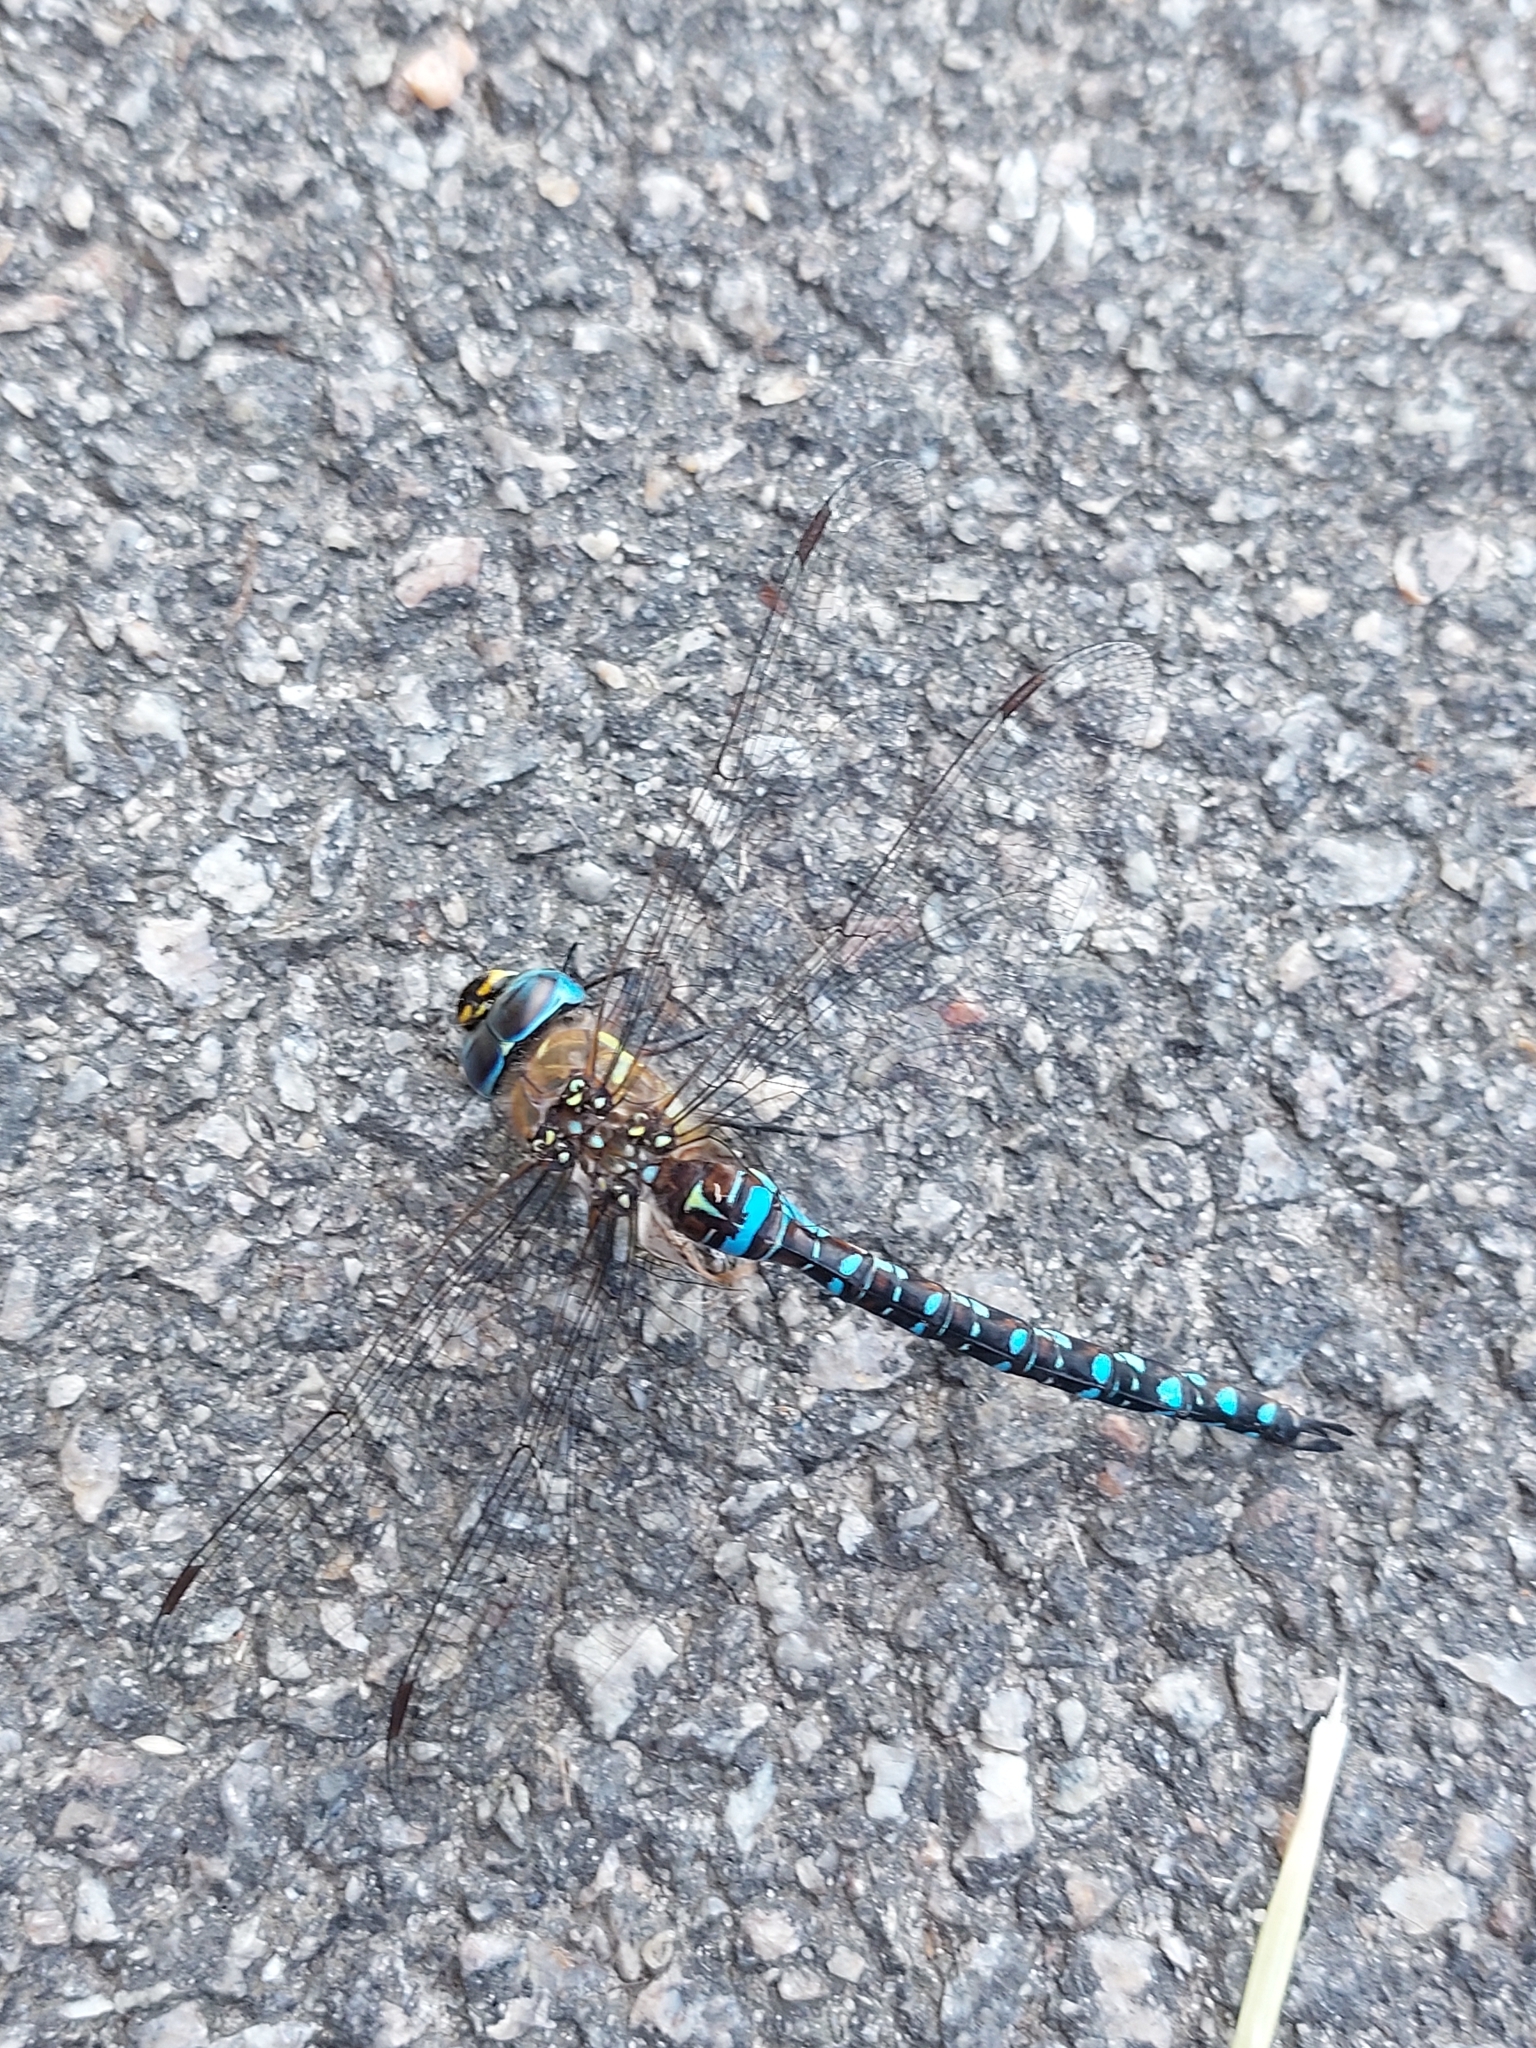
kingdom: Animalia
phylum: Arthropoda
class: Insecta
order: Odonata
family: Aeshnidae
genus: Aeshna
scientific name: Aeshna mixta
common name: Migrant hawker
